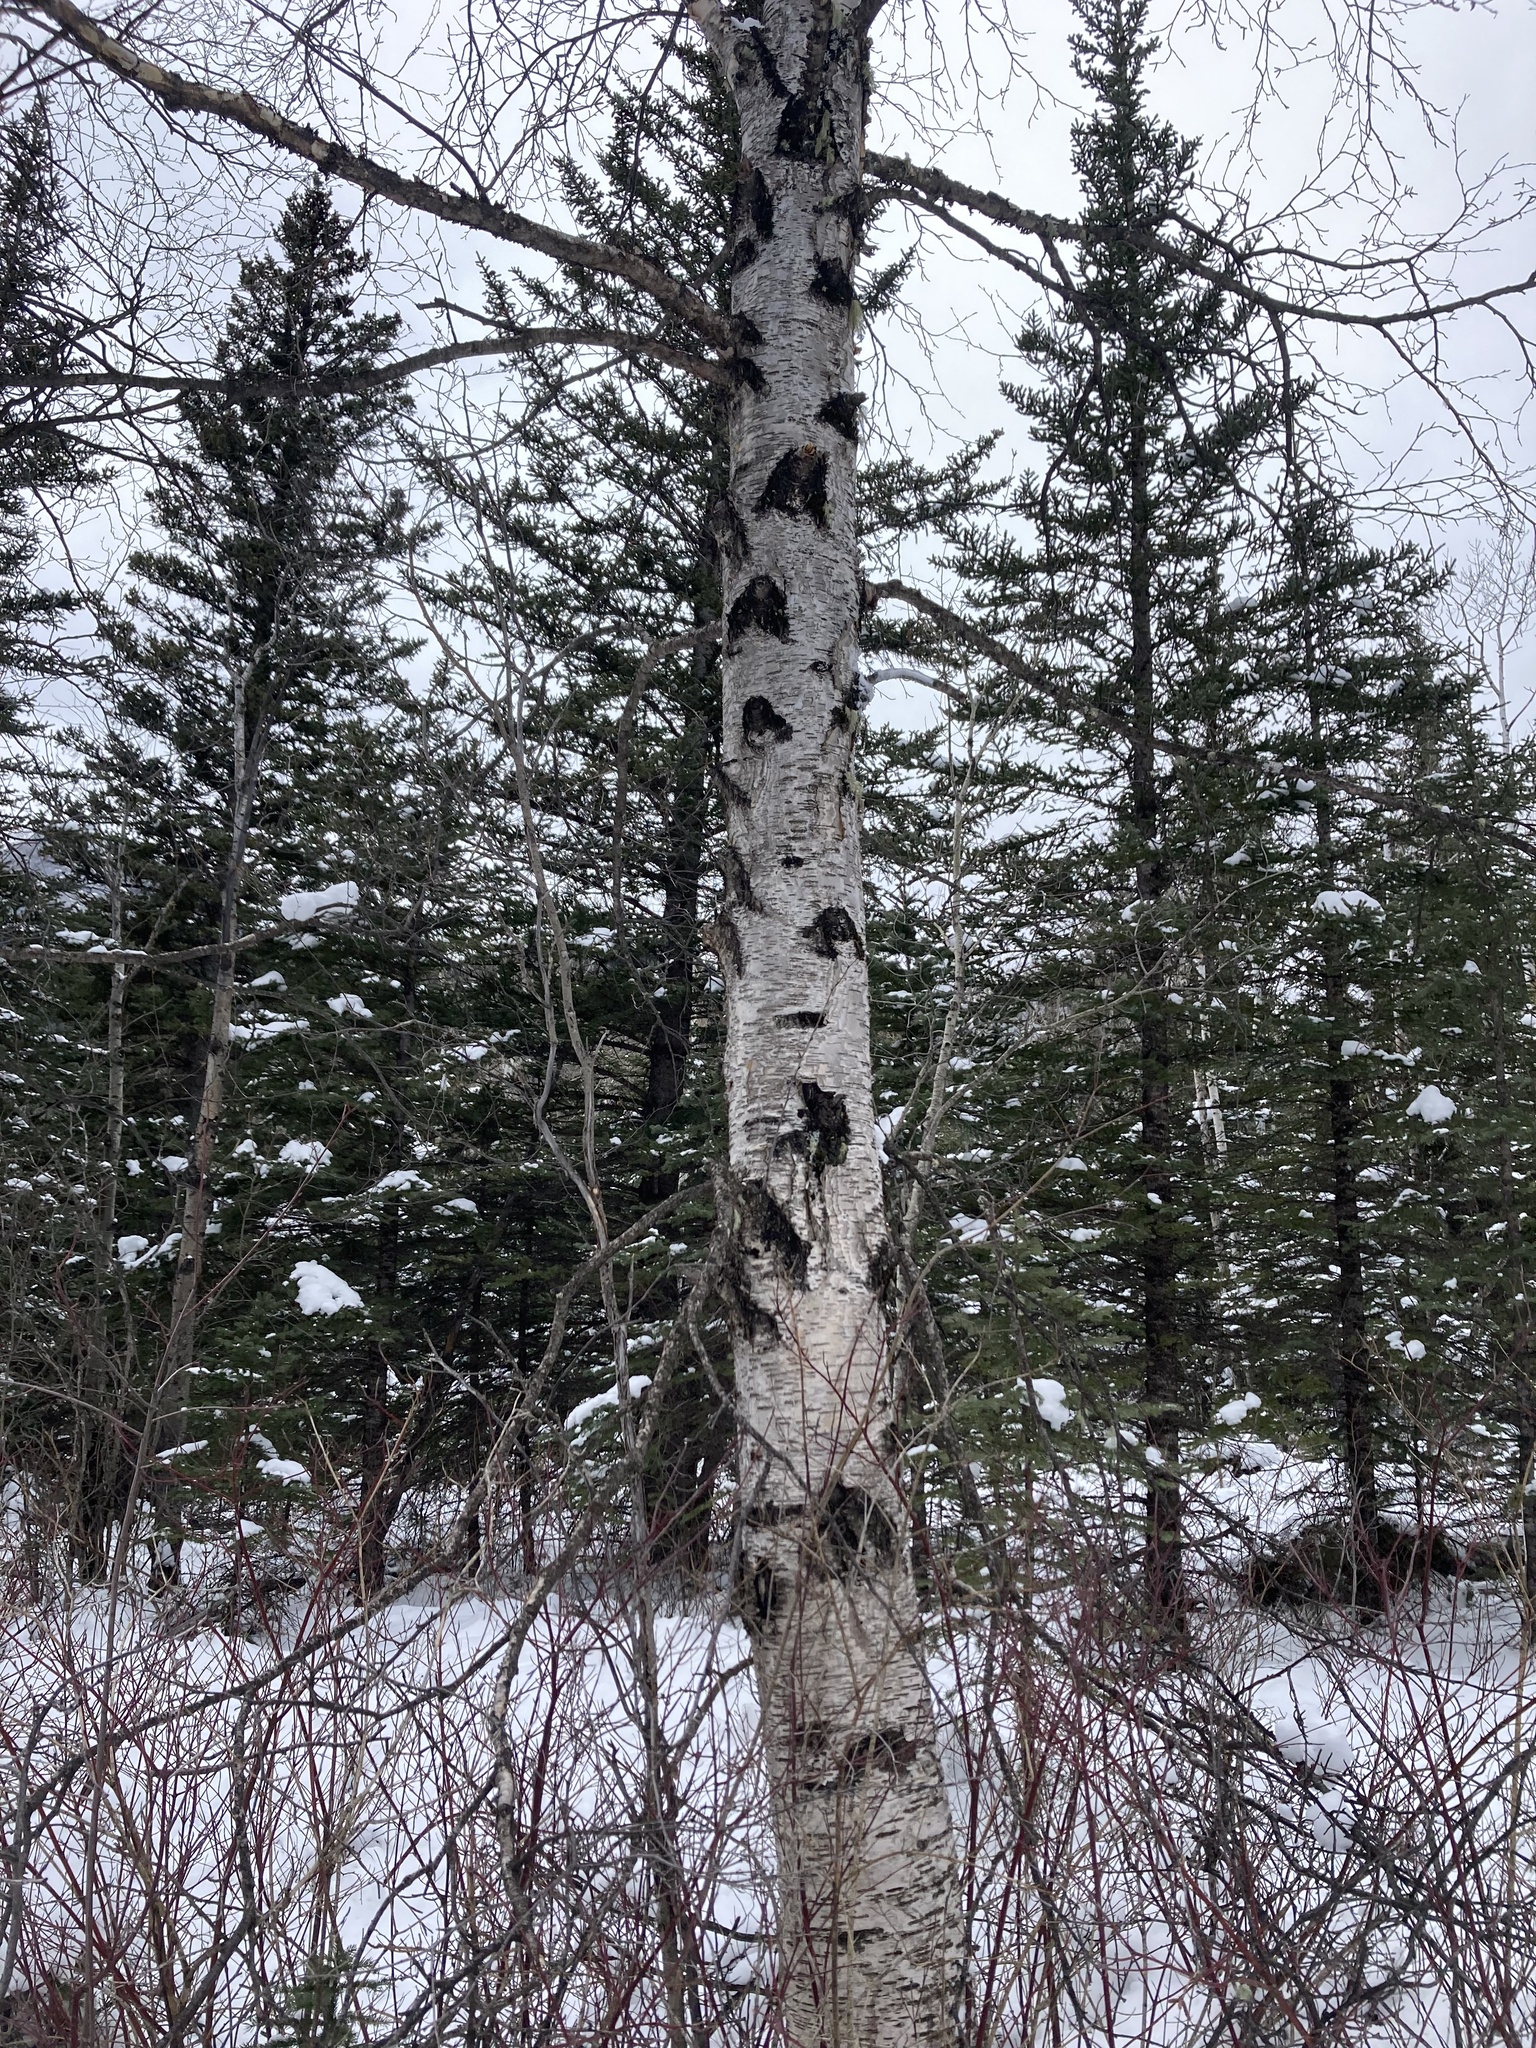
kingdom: Plantae
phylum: Tracheophyta
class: Magnoliopsida
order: Fagales
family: Betulaceae
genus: Betula
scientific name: Betula papyrifera
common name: Paper birch
